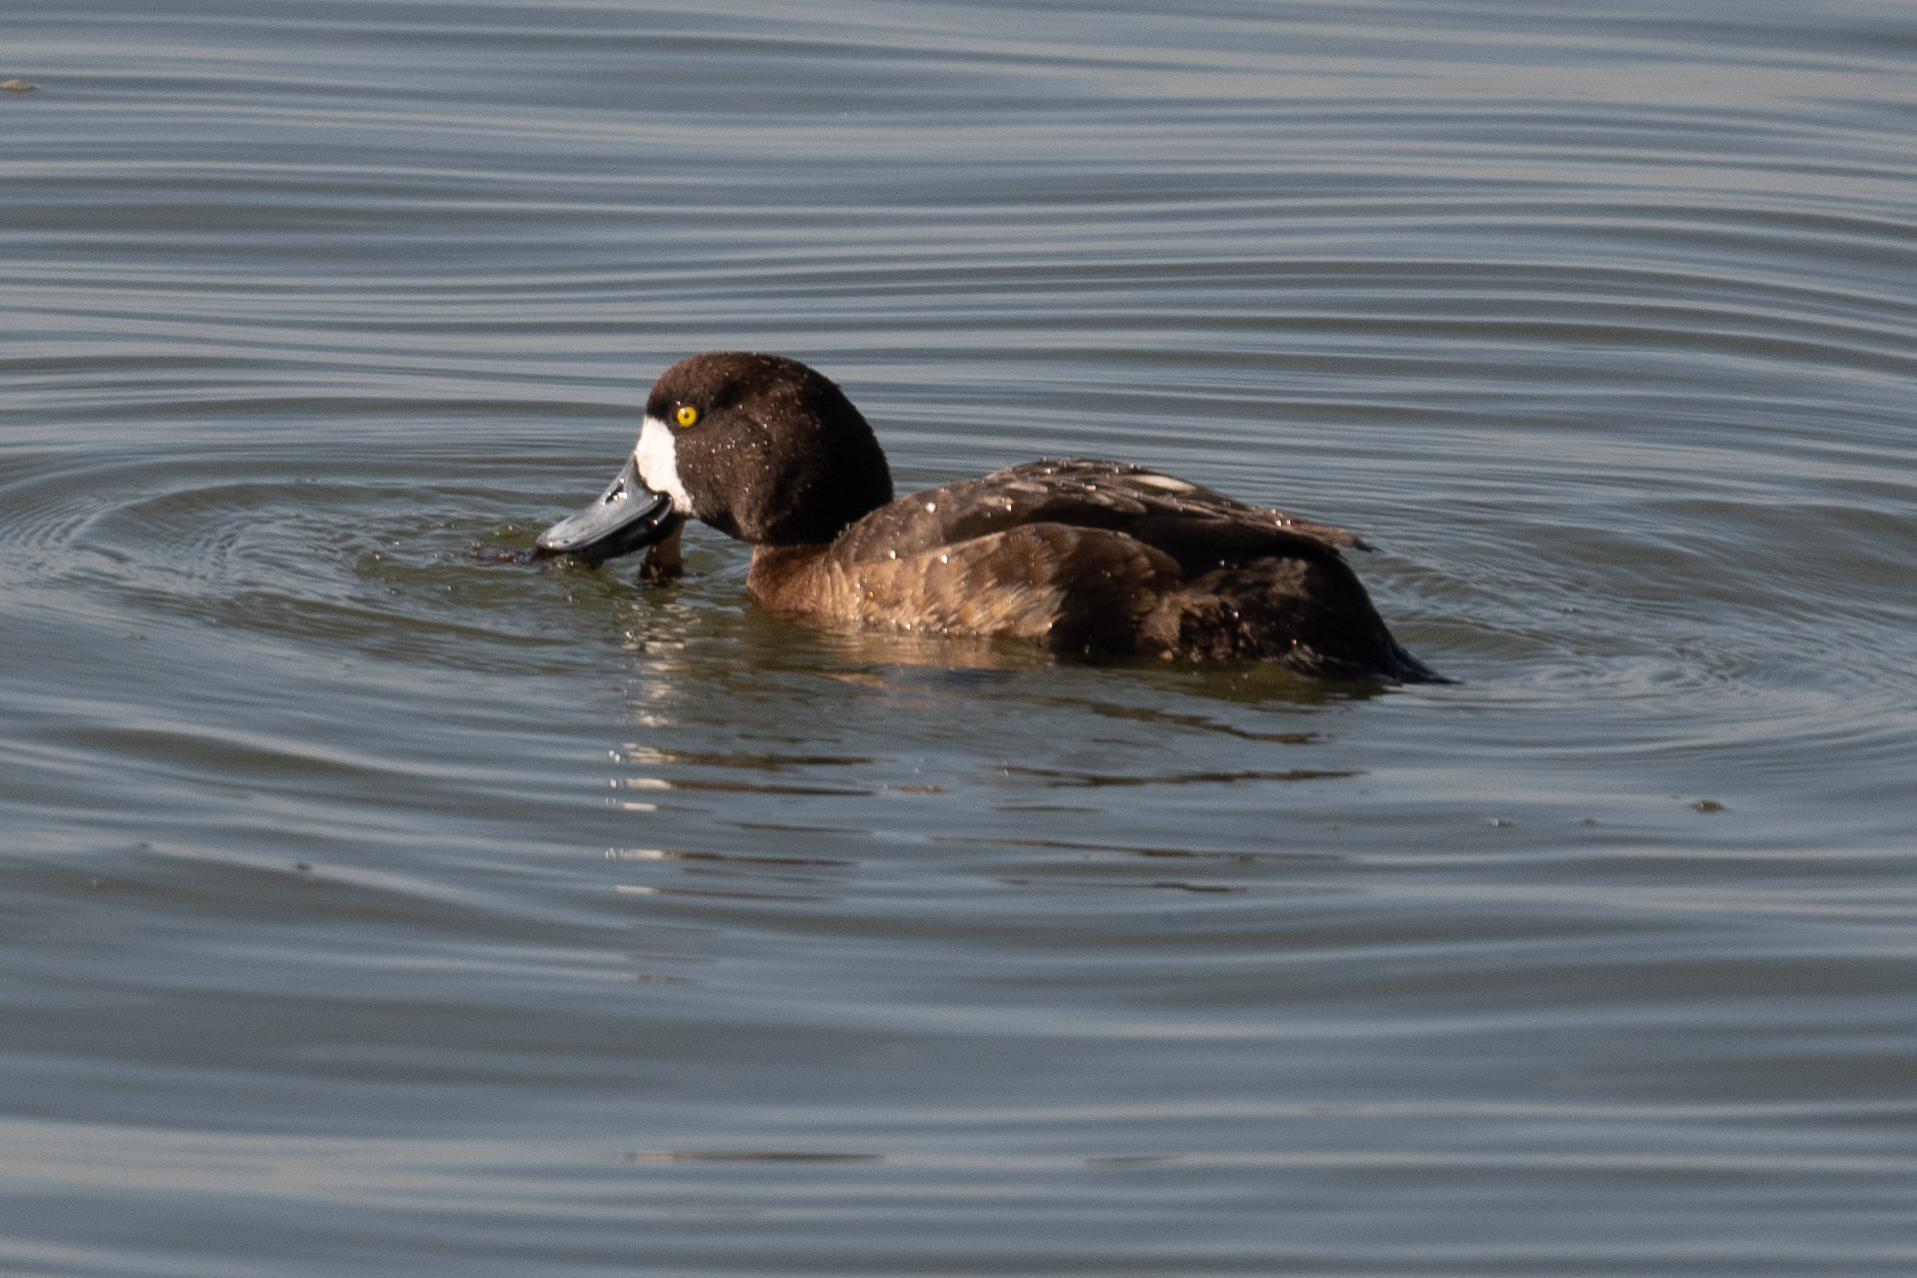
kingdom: Animalia
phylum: Chordata
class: Aves
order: Anseriformes
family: Anatidae
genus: Aythya
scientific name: Aythya marila
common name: Greater scaup
